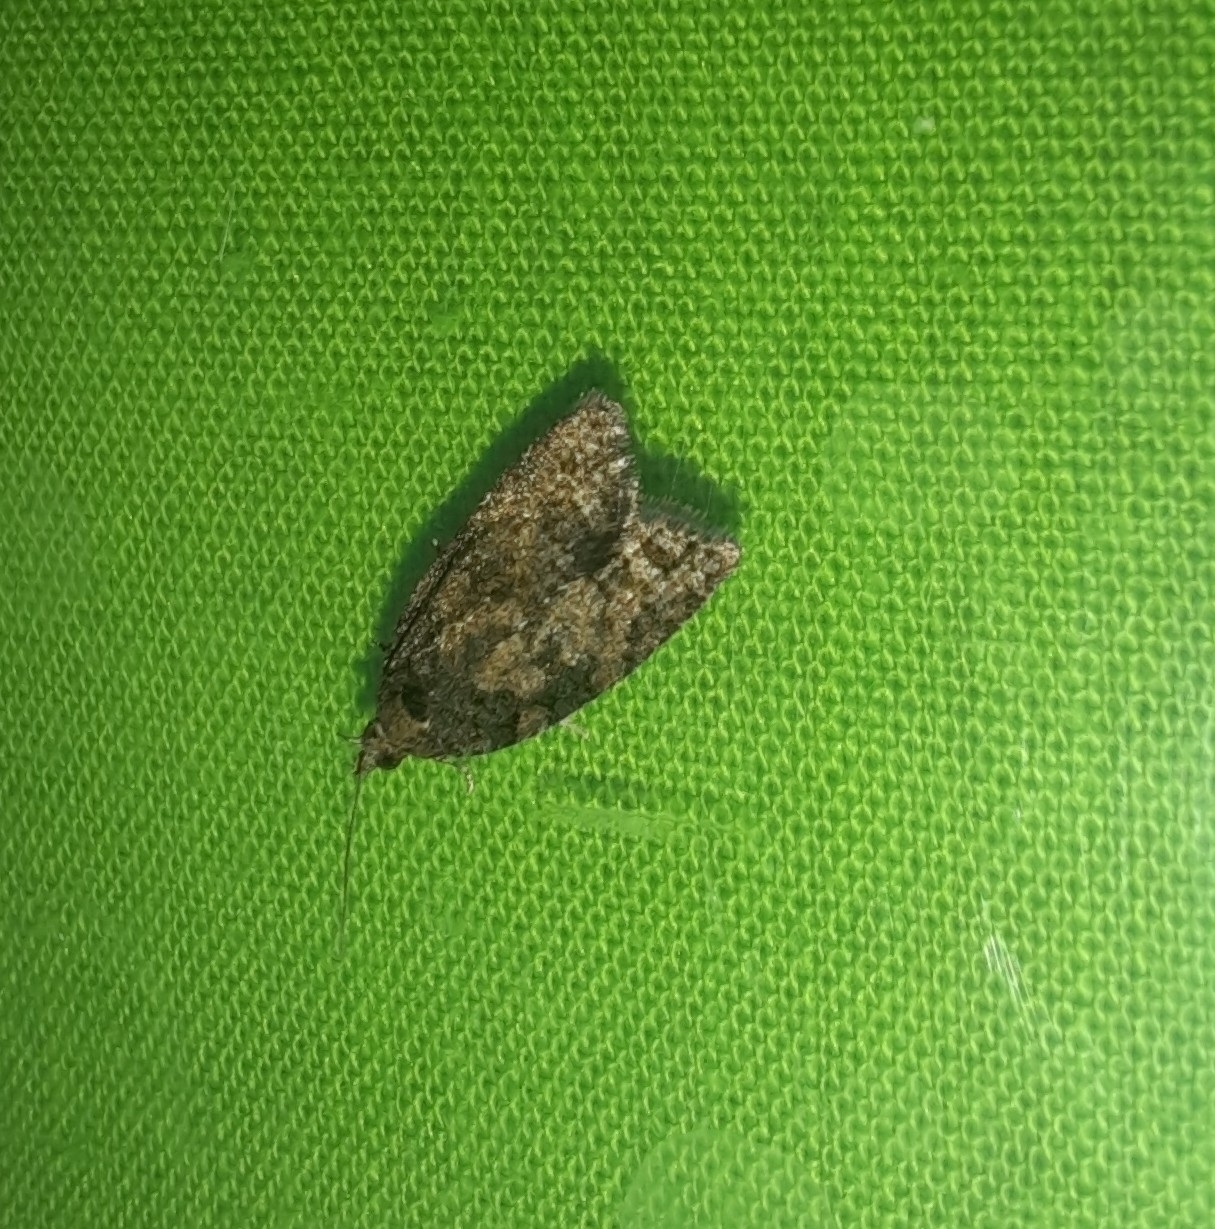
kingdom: Animalia
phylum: Arthropoda
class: Insecta
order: Lepidoptera
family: Tortricidae
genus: Capua
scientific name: Capua intractana
